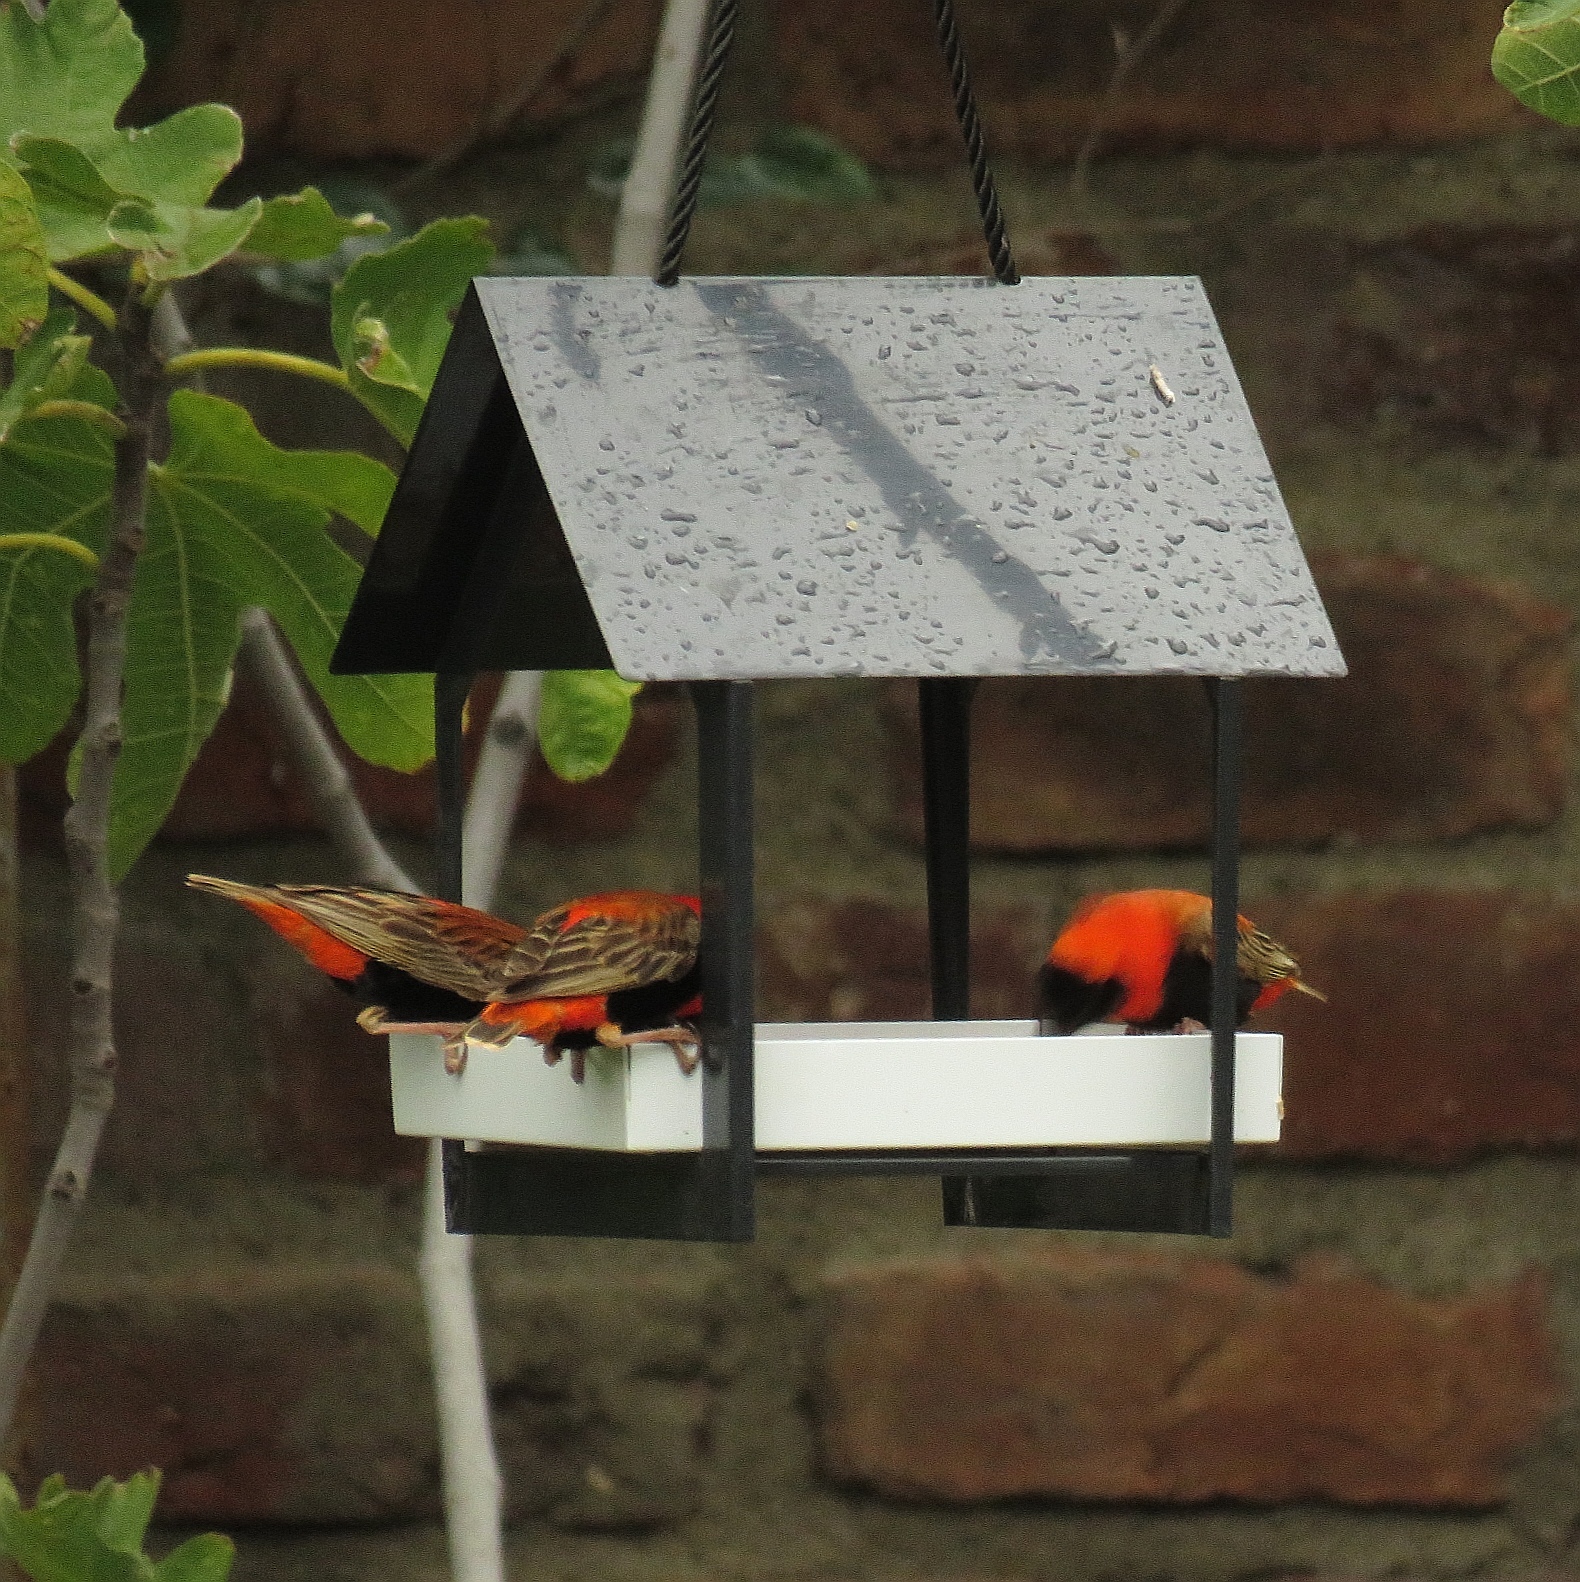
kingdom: Animalia
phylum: Chordata
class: Aves
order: Passeriformes
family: Ploceidae
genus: Euplectes
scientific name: Euplectes orix
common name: Southern red bishop
